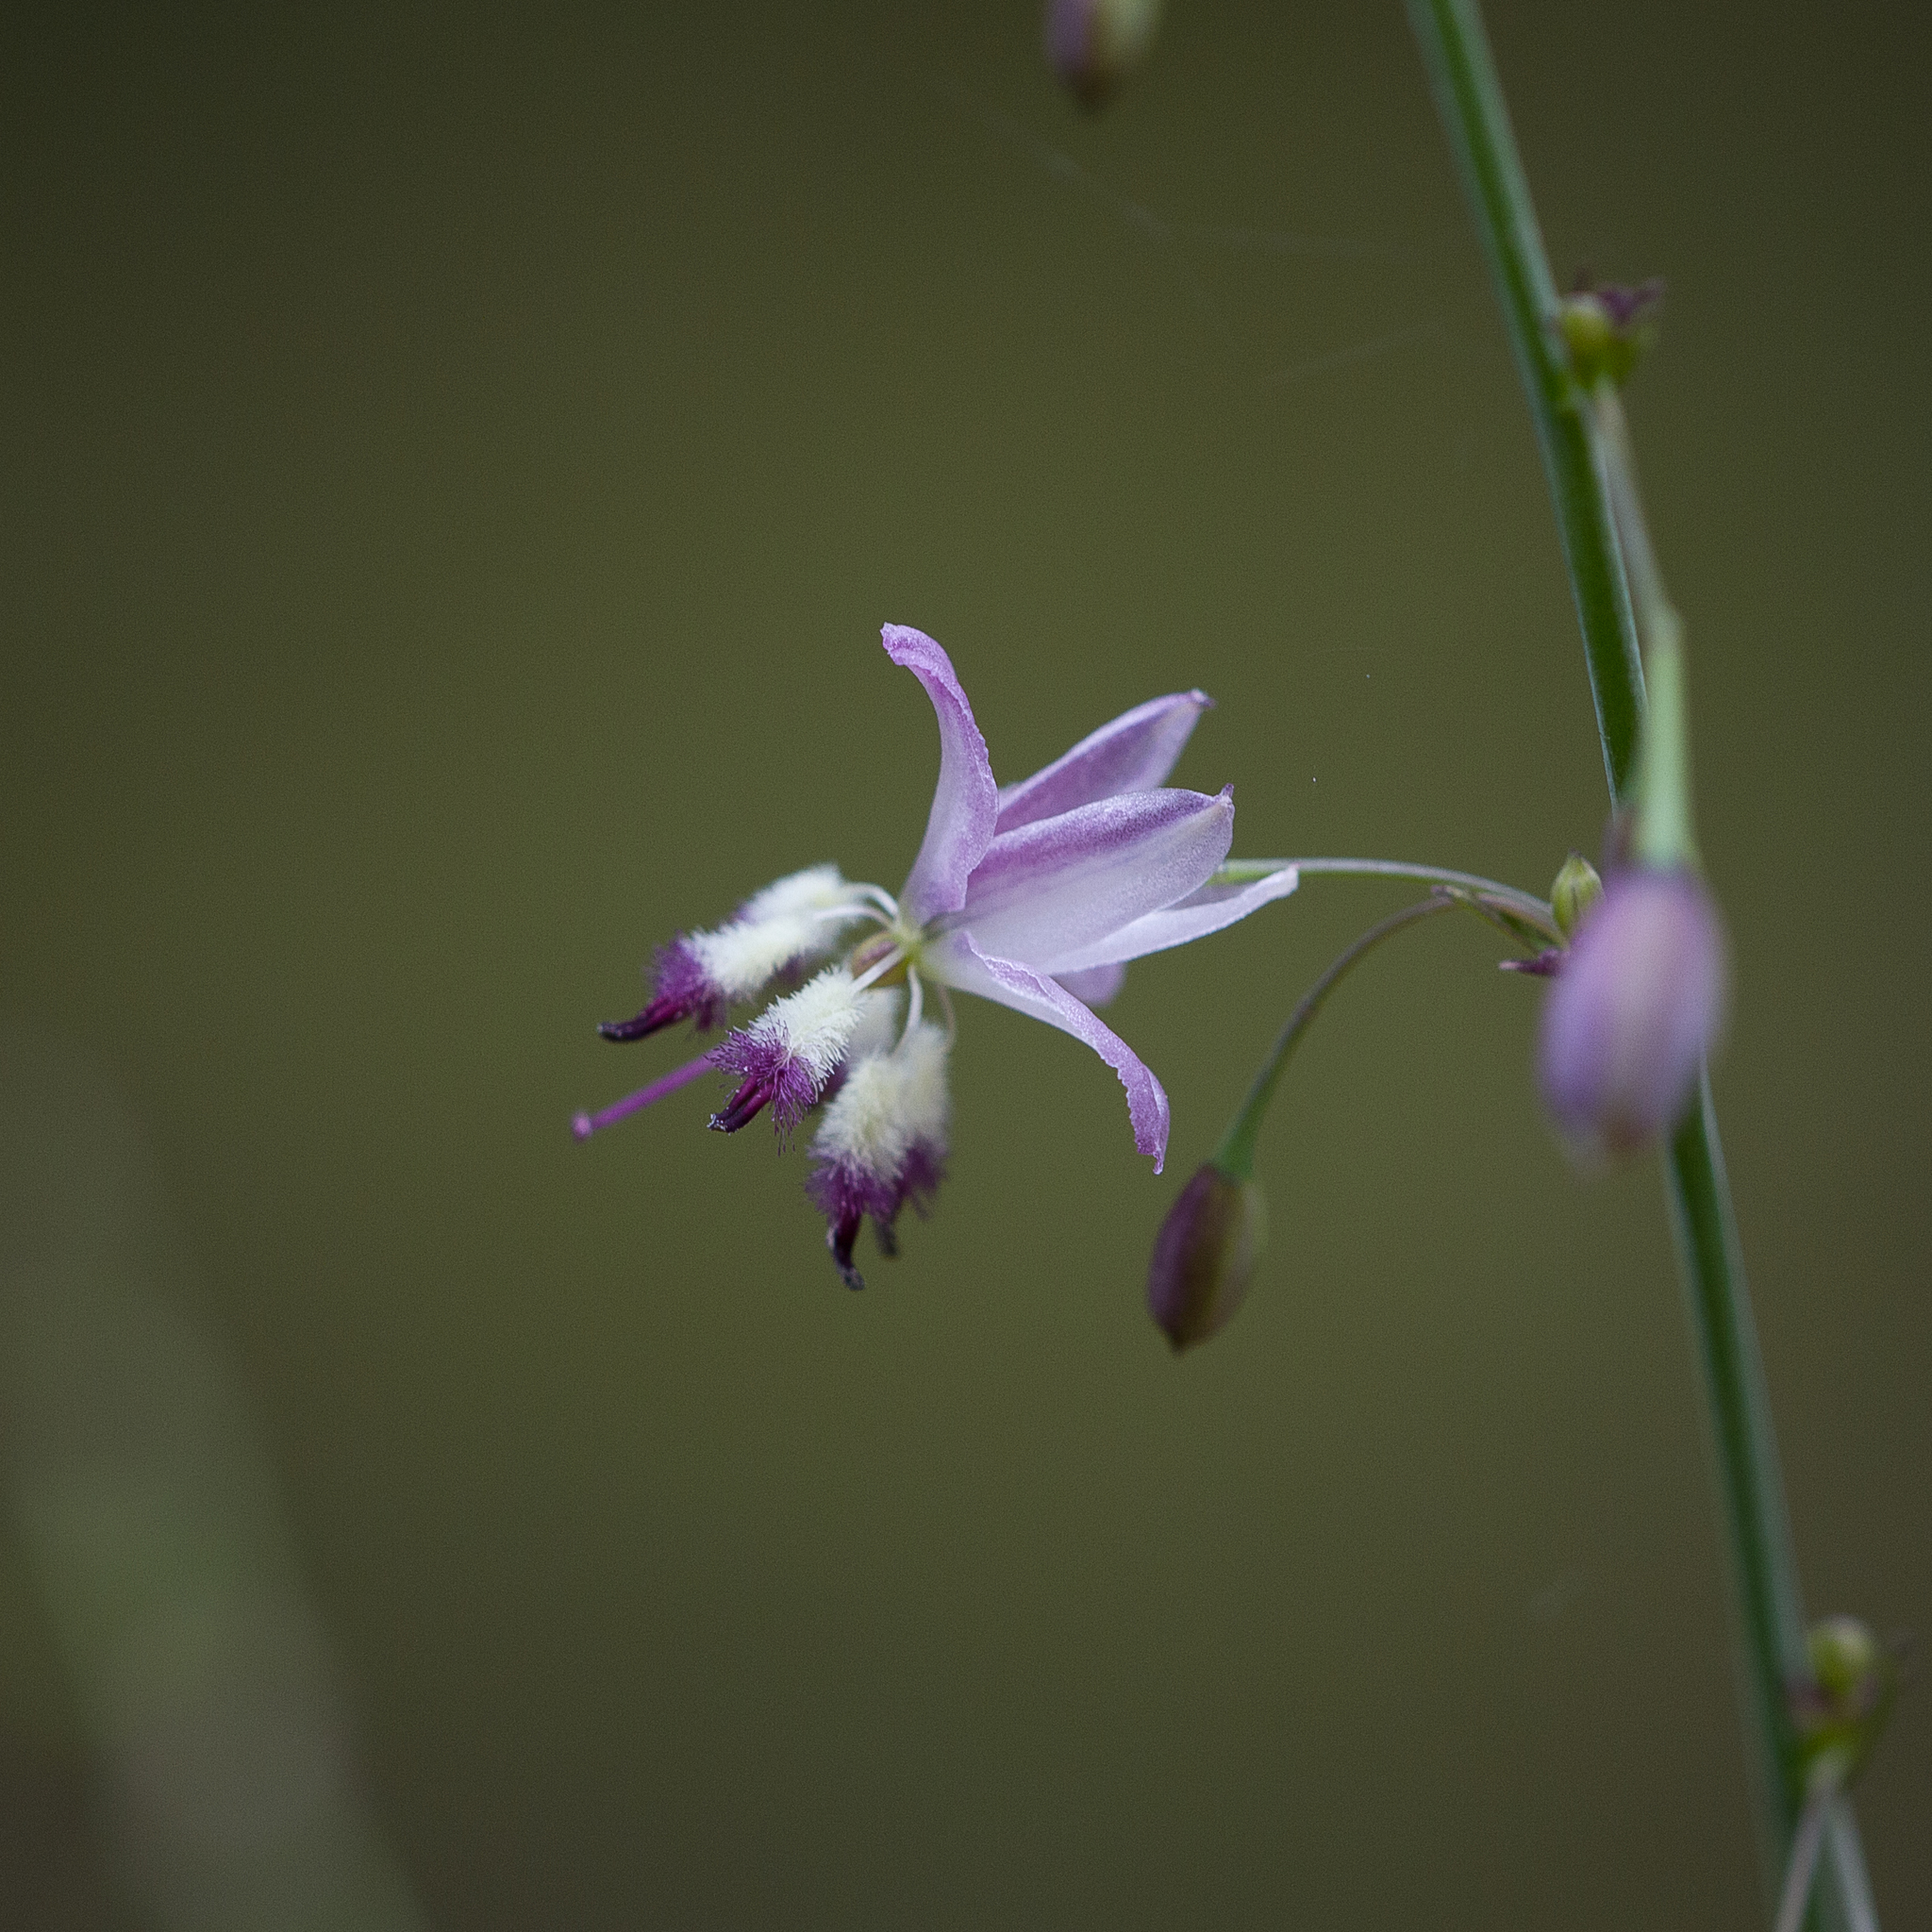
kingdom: Plantae
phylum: Tracheophyta
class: Liliopsida
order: Asparagales
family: Asparagaceae
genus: Arthropodium
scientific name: Arthropodium milleflorum
